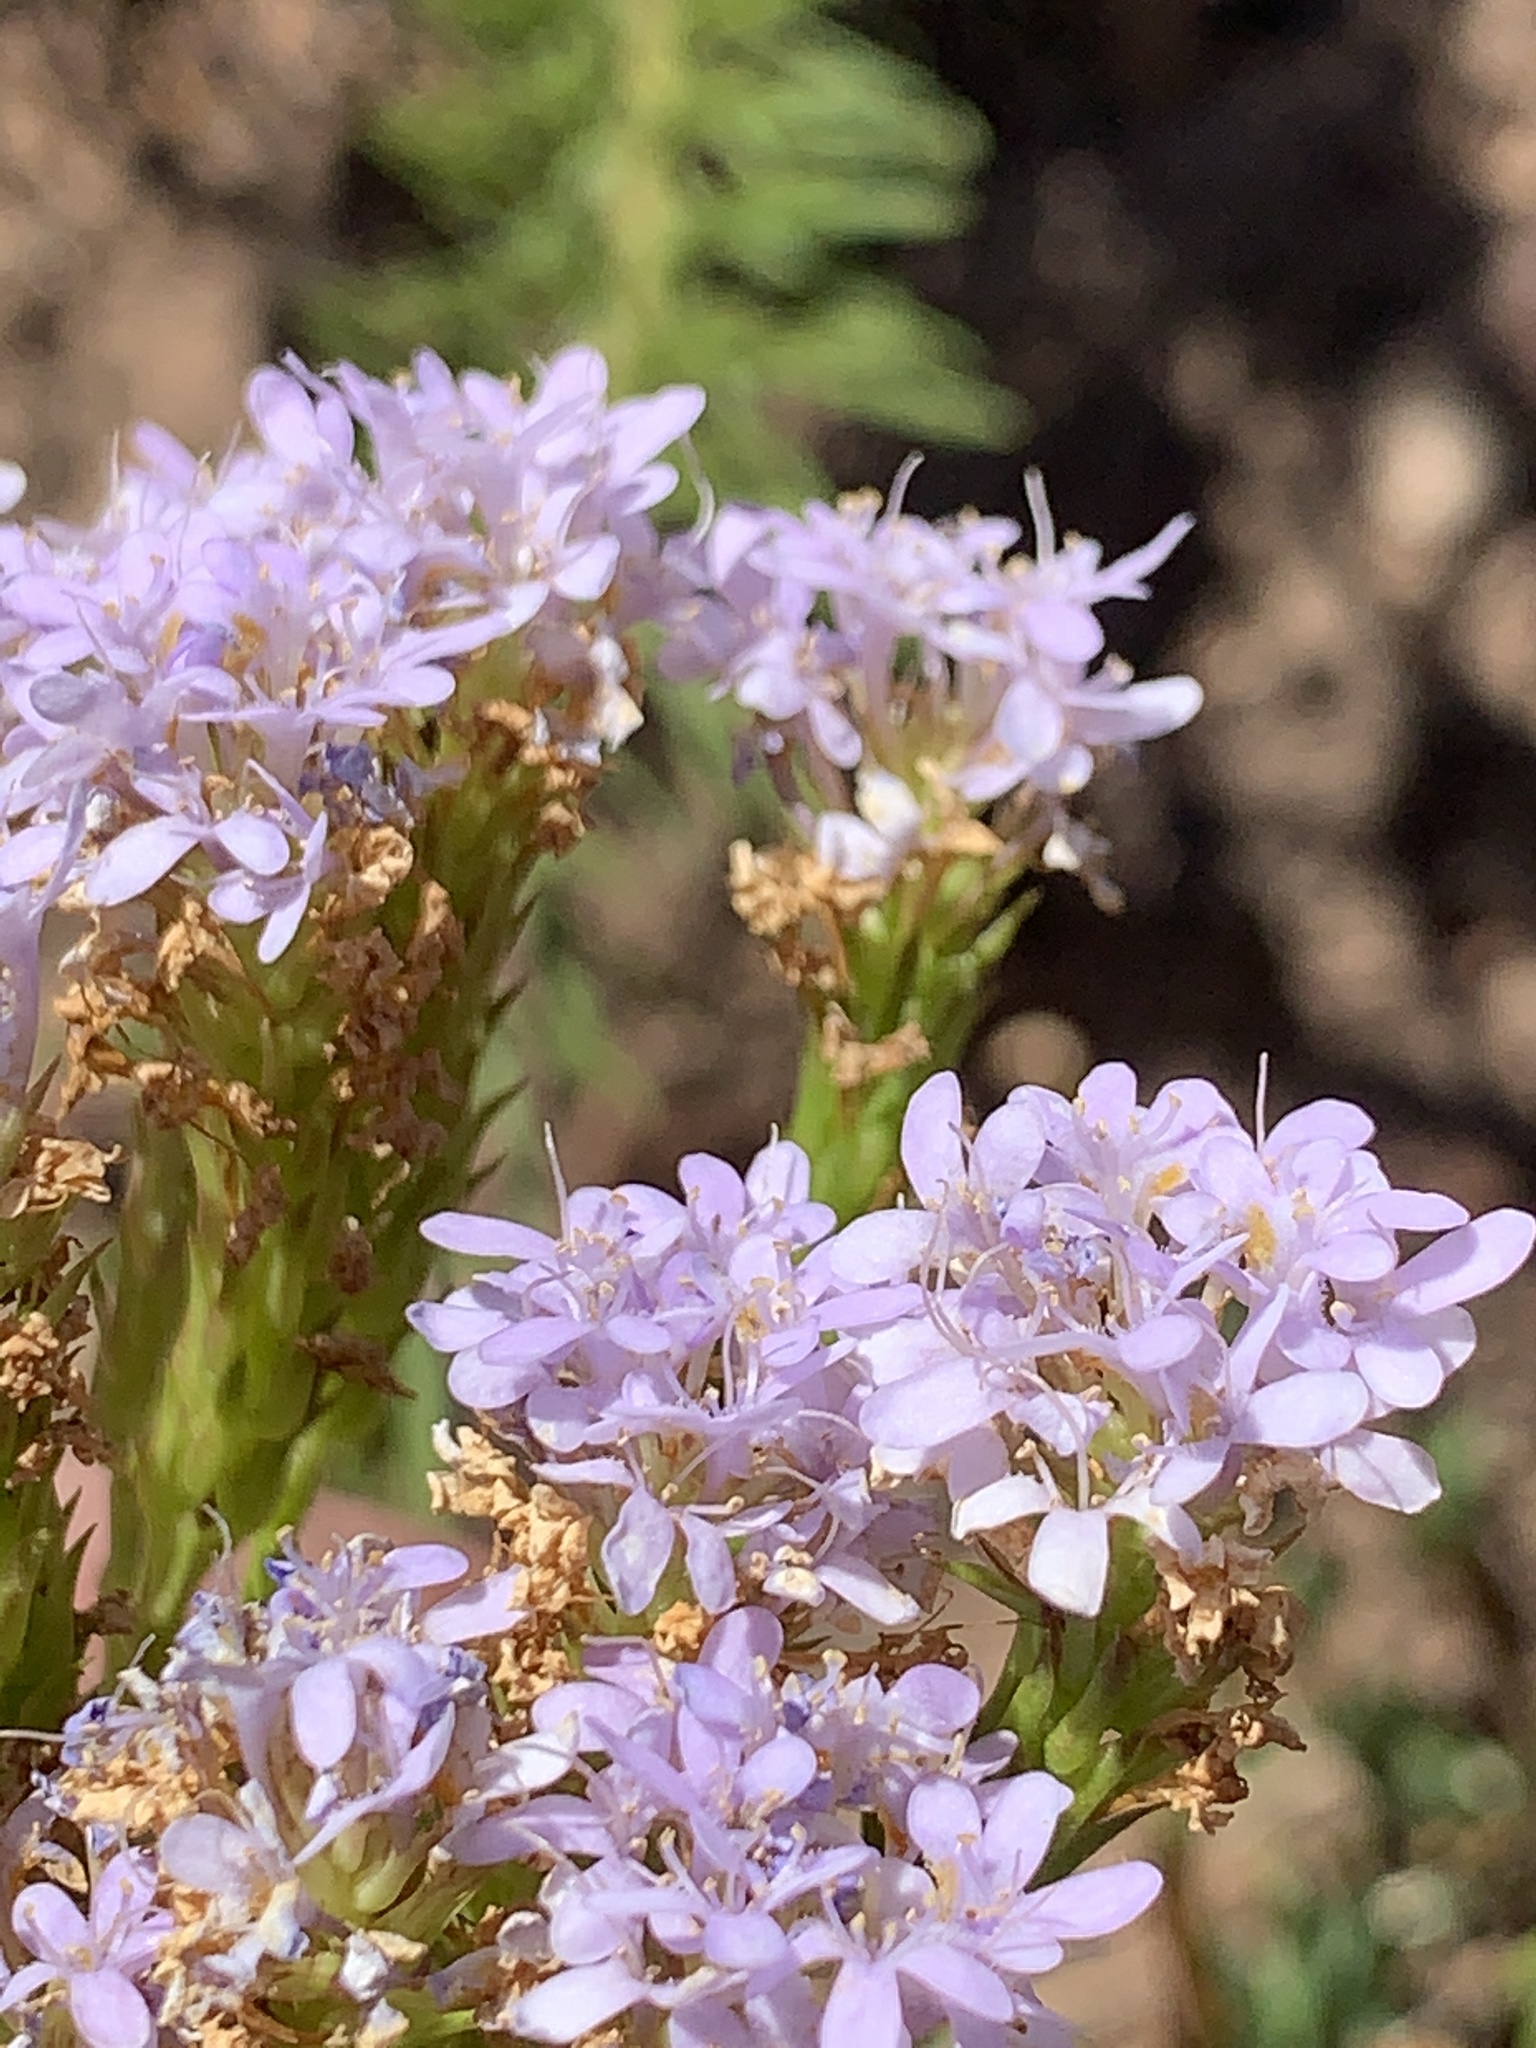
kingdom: Plantae
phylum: Tracheophyta
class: Magnoliopsida
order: Lamiales
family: Scrophulariaceae
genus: Pseudoselago
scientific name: Pseudoselago spuria
